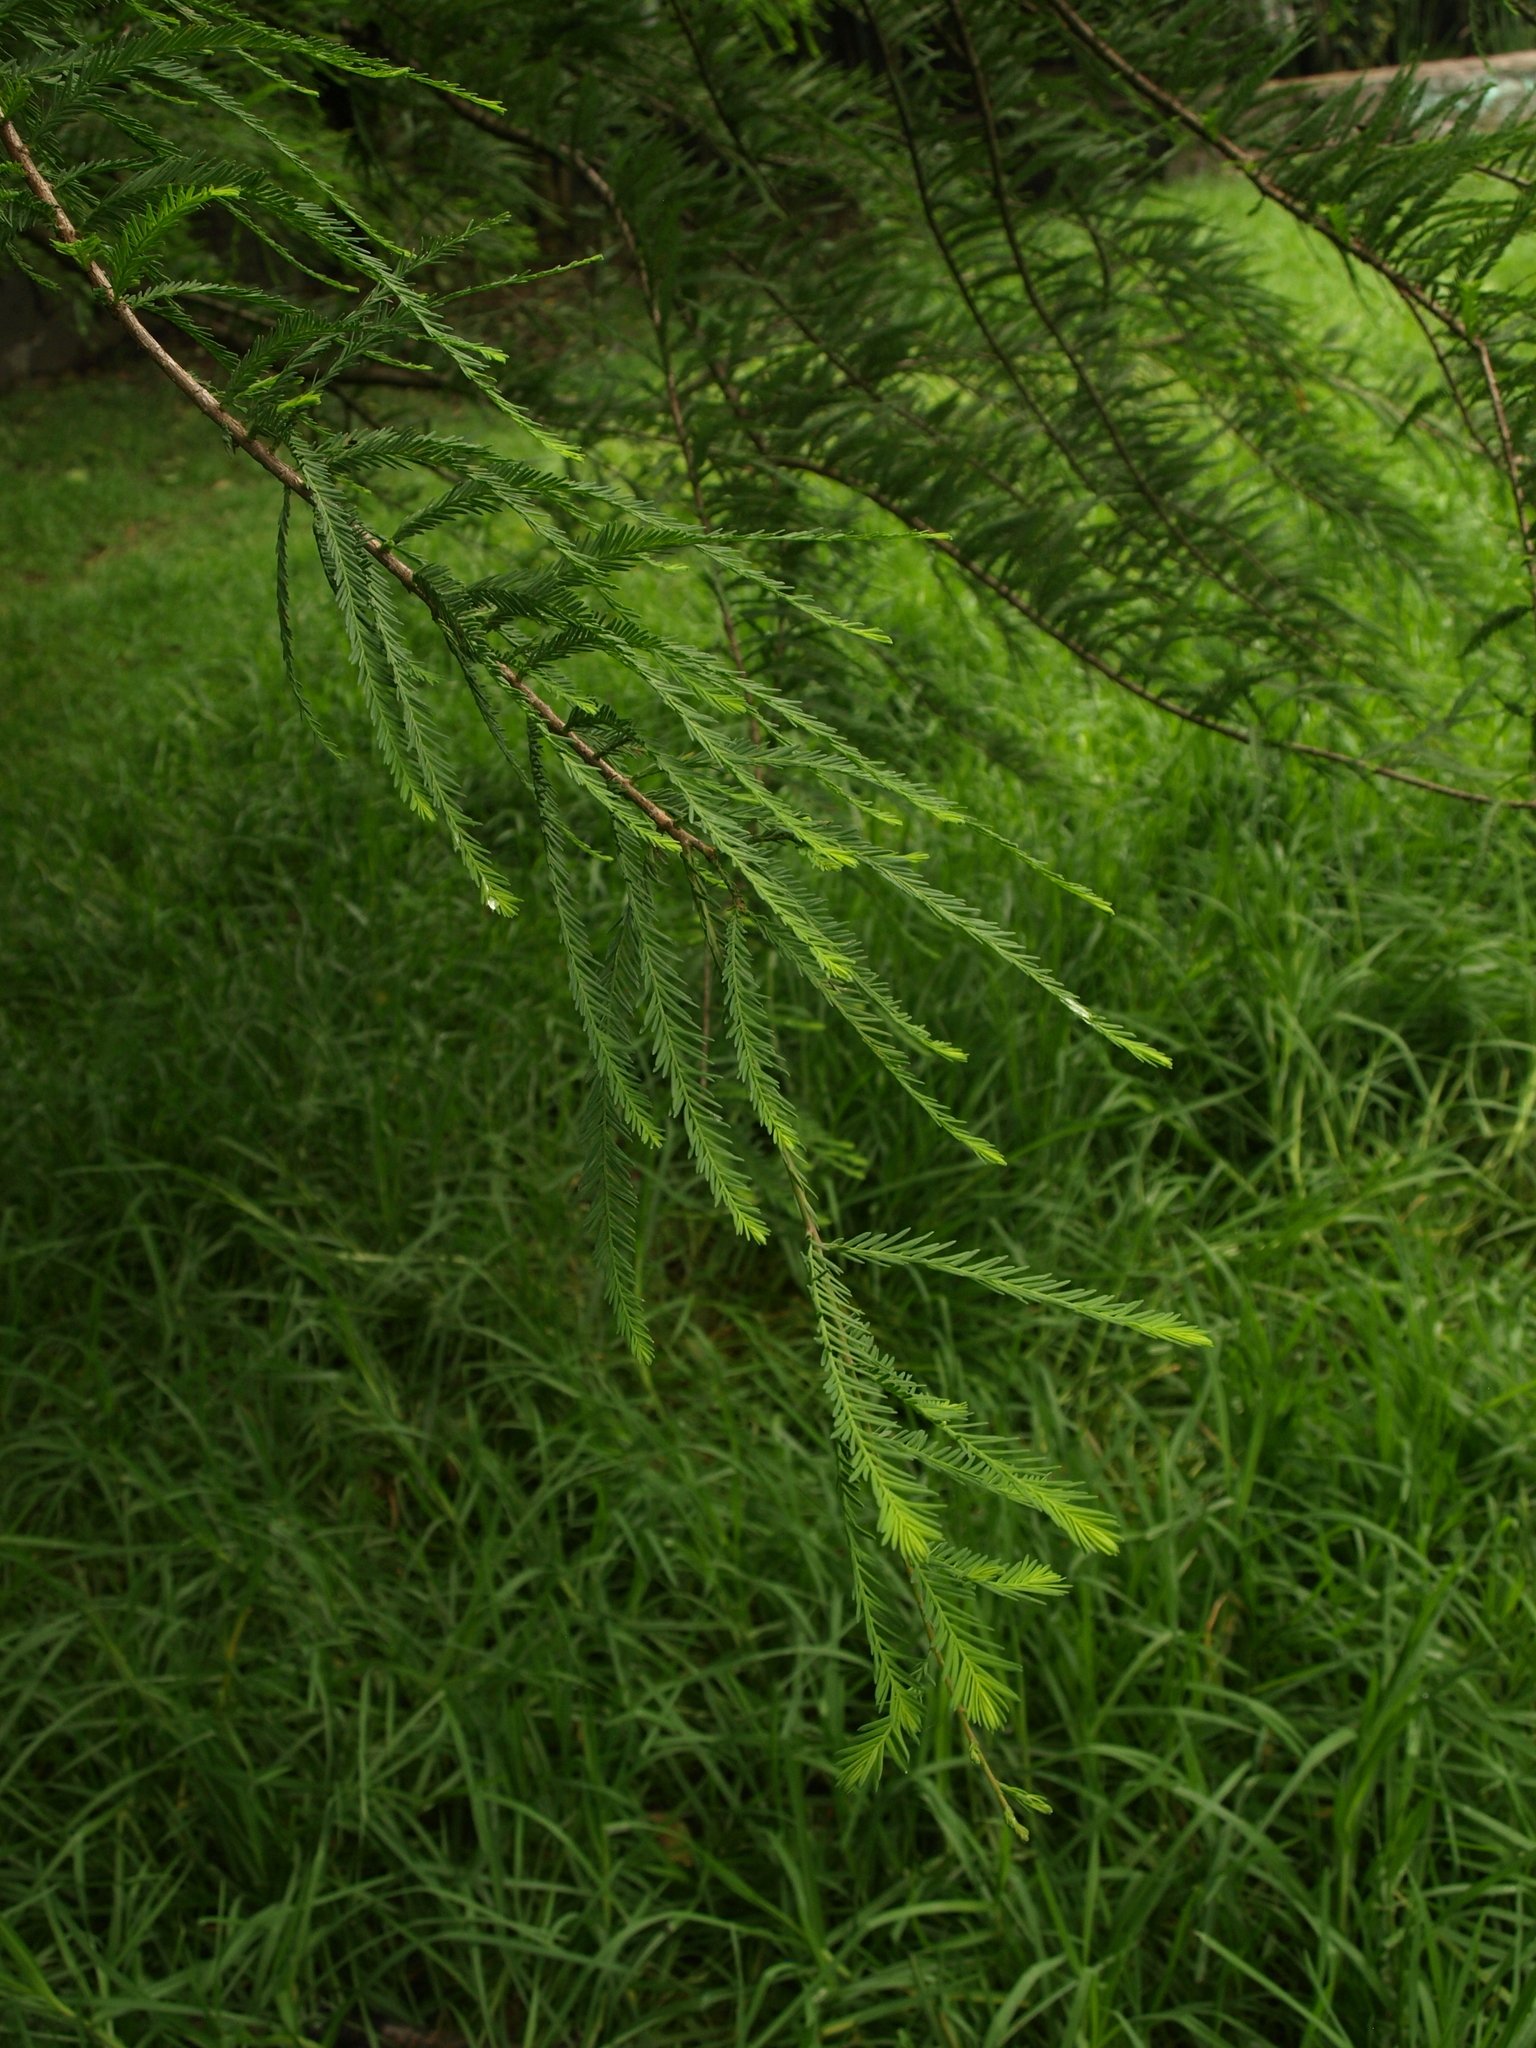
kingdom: Plantae
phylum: Tracheophyta
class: Pinopsida
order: Pinales
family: Cupressaceae
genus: Taxodium
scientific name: Taxodium mucronatum
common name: Montezume bald cypress
